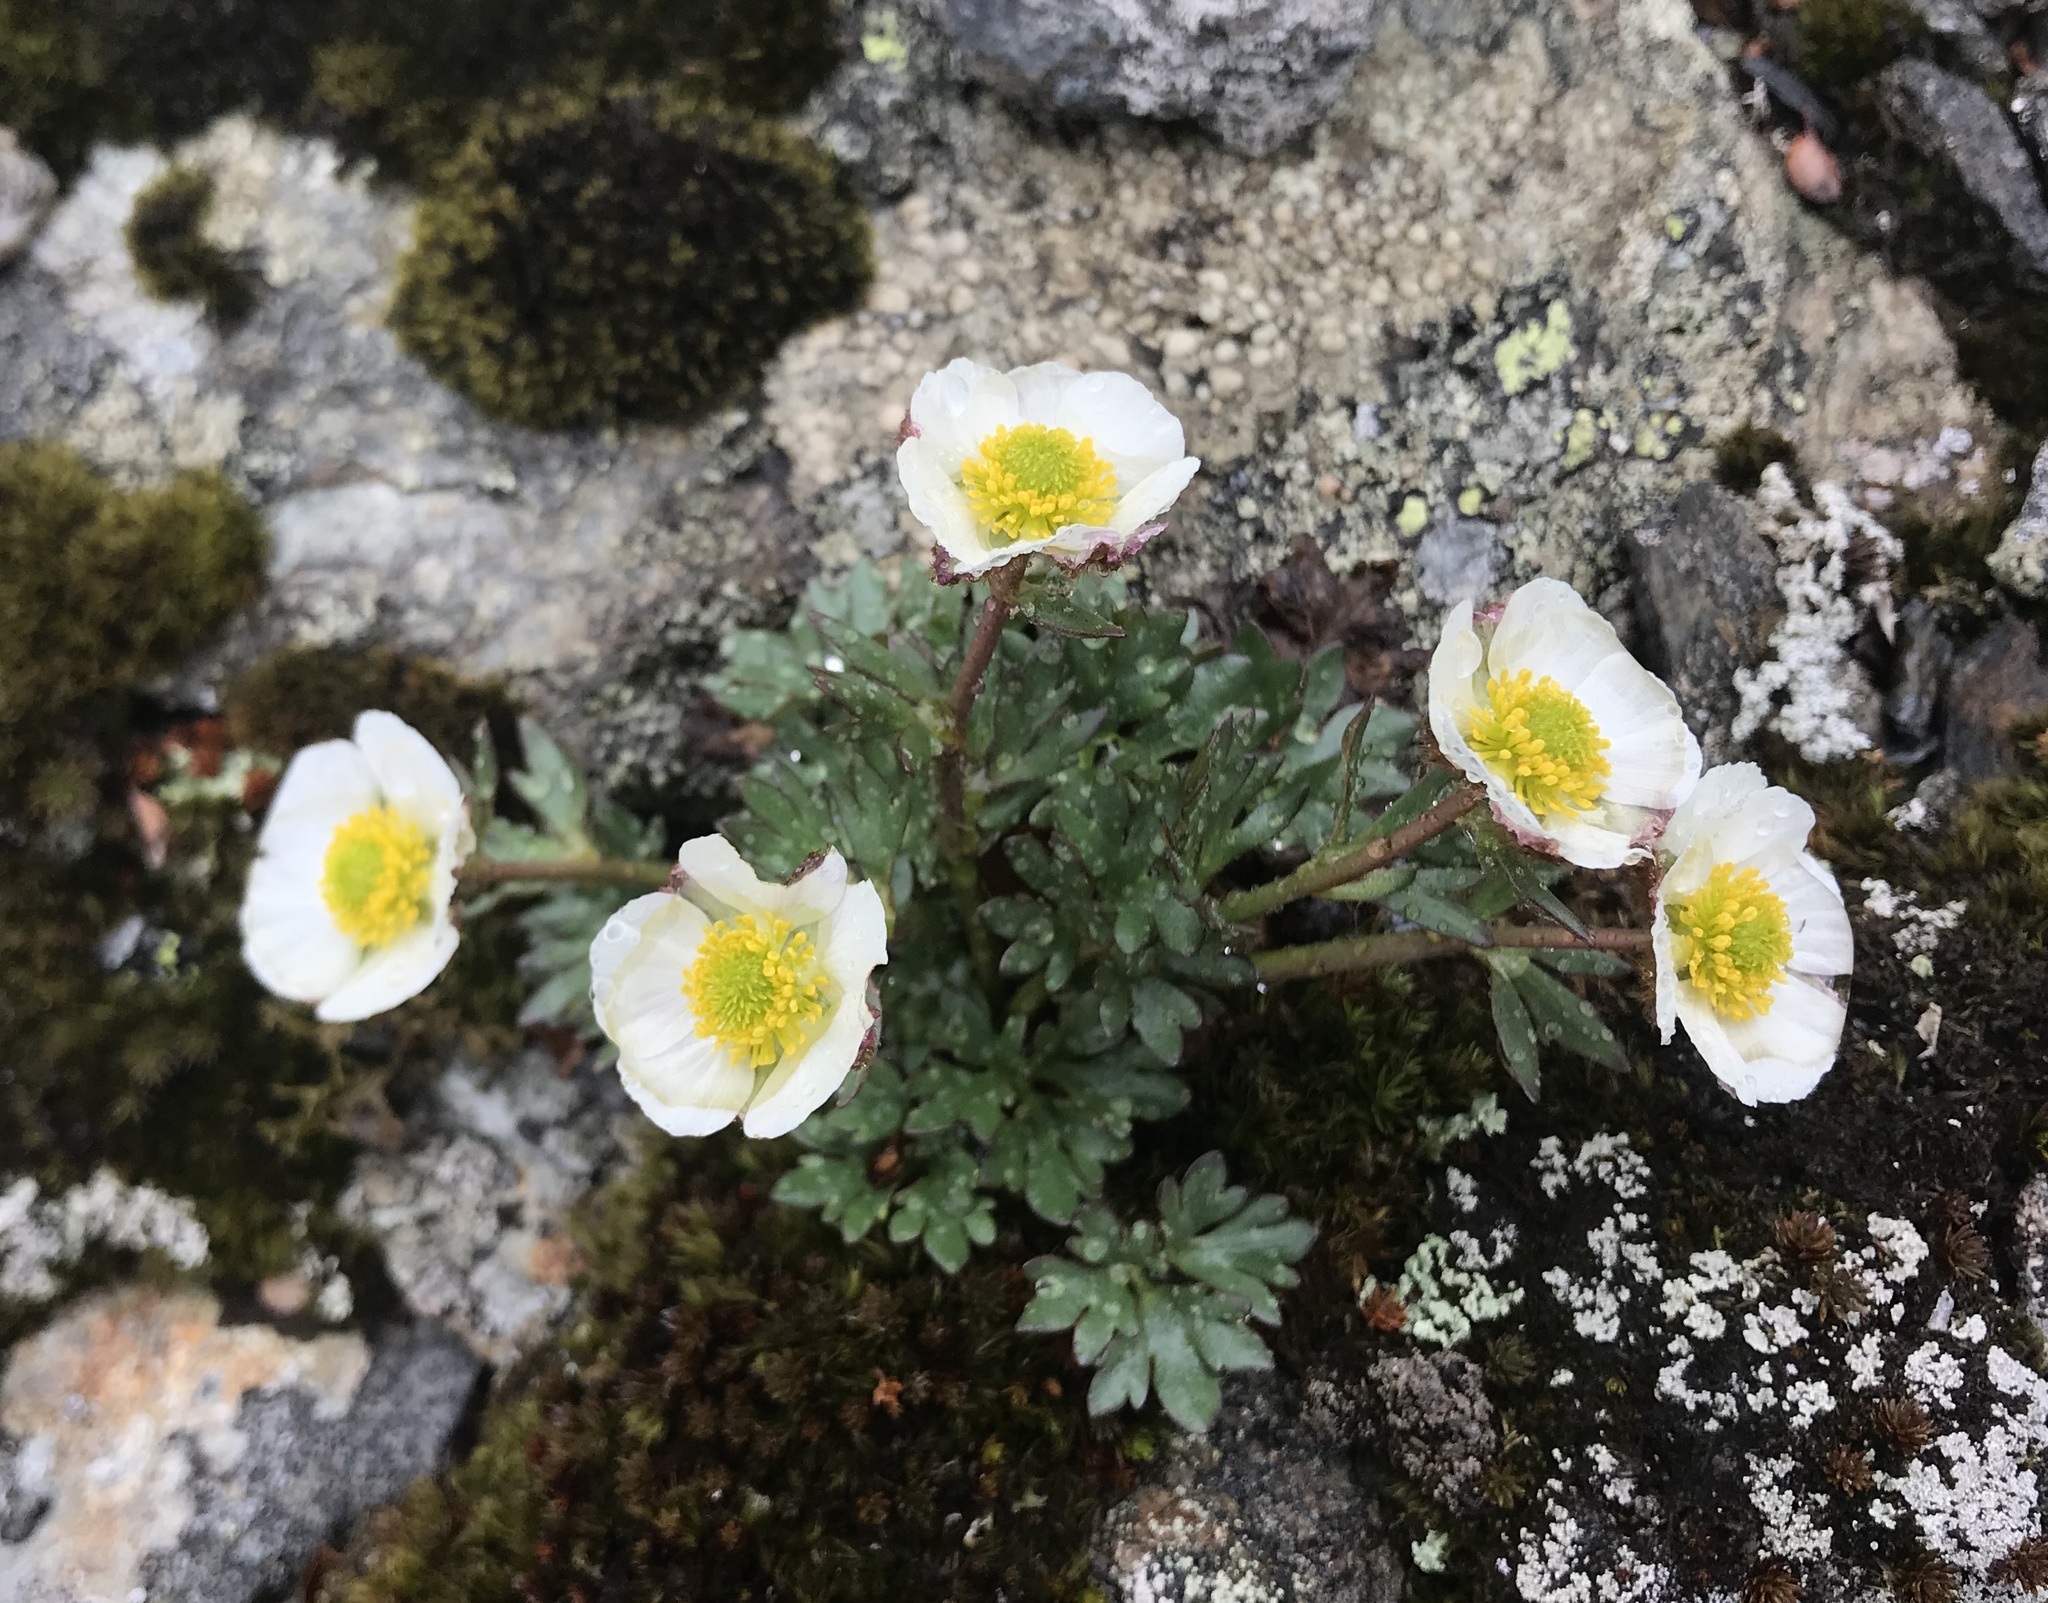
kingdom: Plantae
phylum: Tracheophyta
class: Magnoliopsida
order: Ranunculales
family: Ranunculaceae
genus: Ranunculus
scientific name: Ranunculus glacialis
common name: Glacier buttercup
